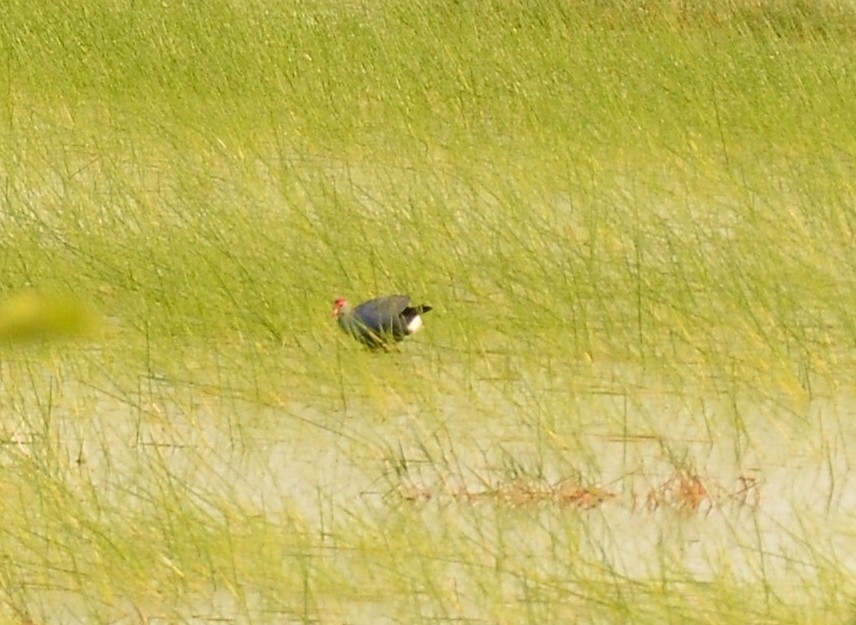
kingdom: Animalia
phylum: Chordata
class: Aves
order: Gruiformes
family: Rallidae
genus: Porphyrio
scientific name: Porphyrio porphyrio
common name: Purple swamphen
